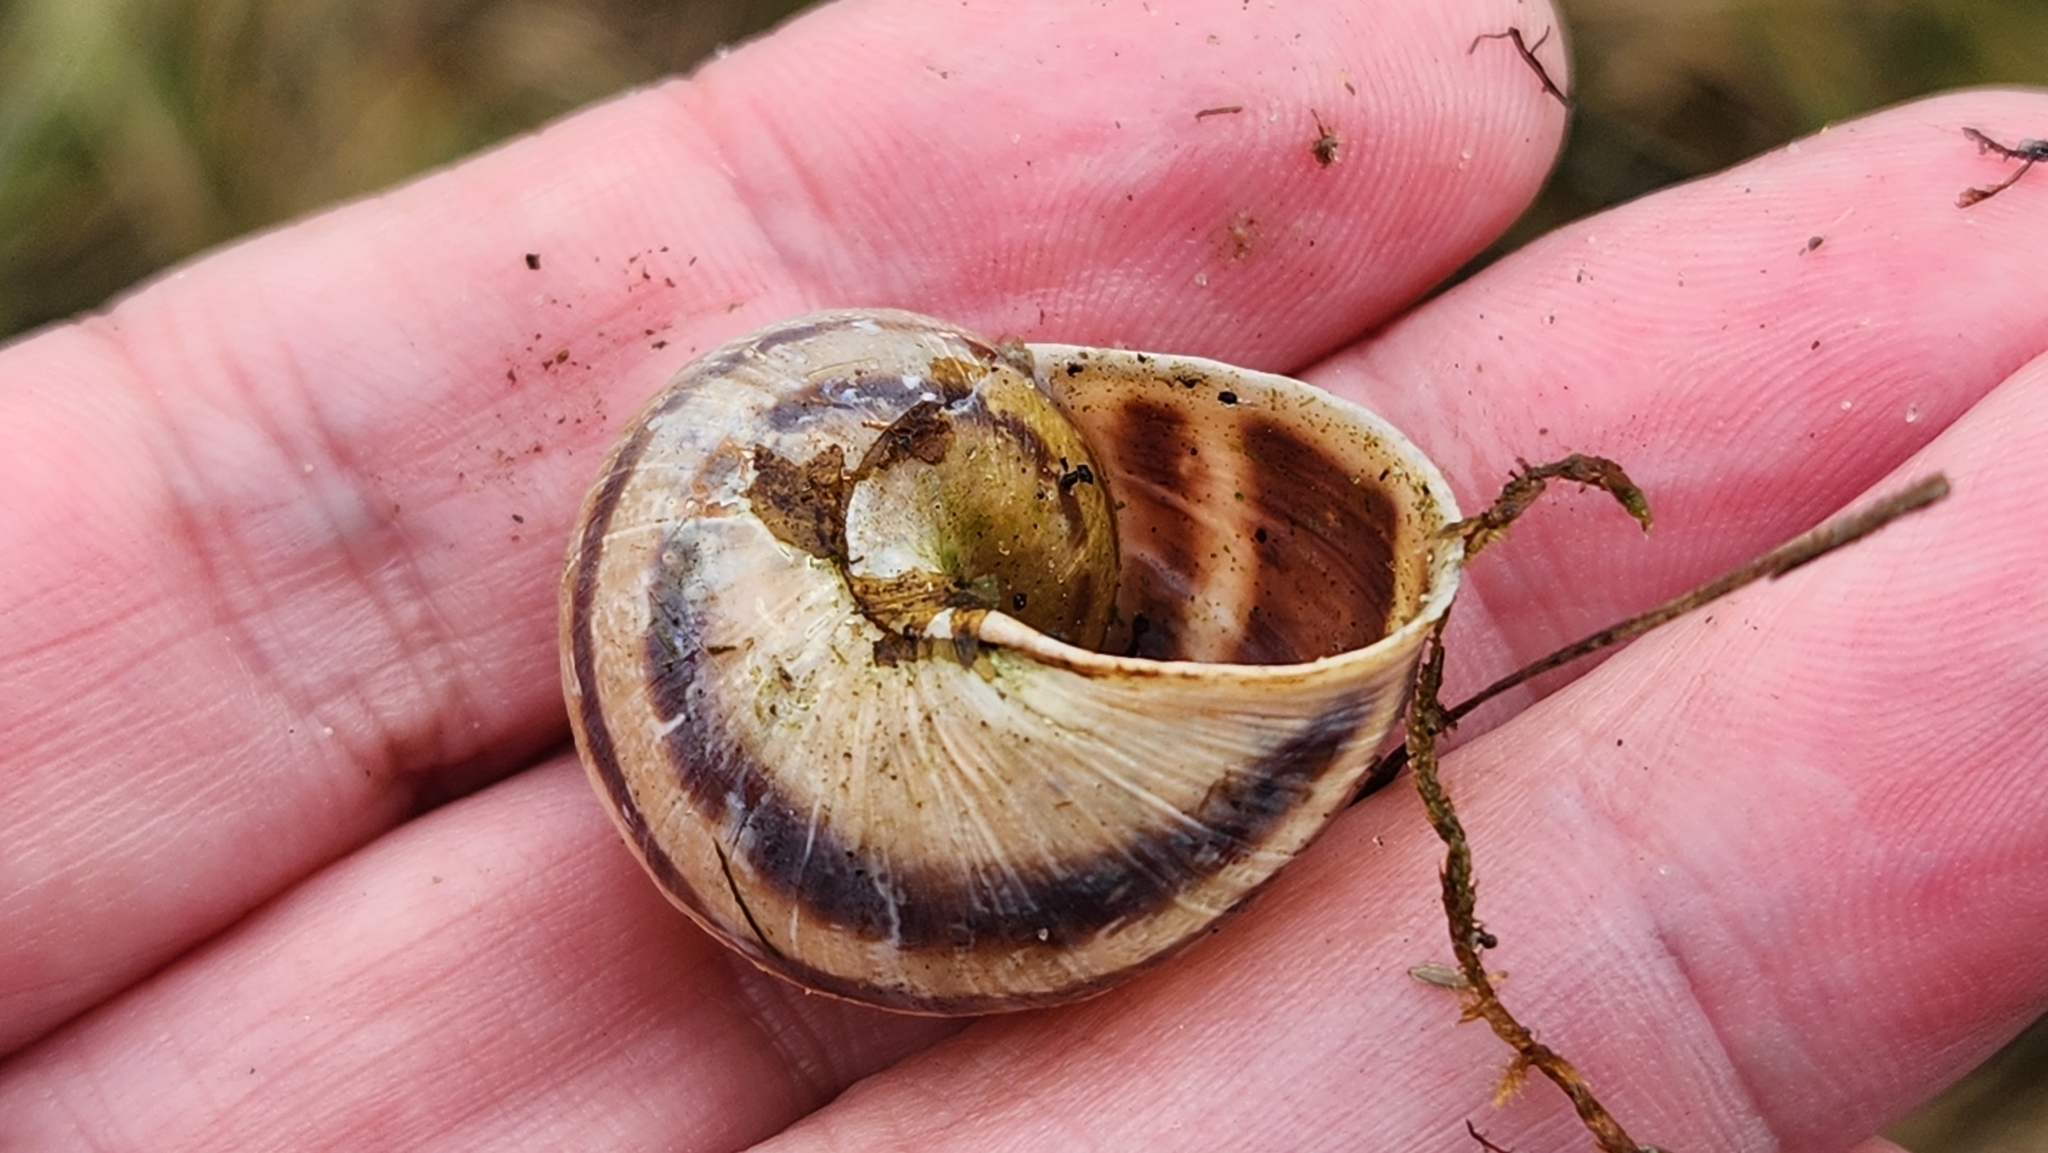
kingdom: Animalia
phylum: Mollusca
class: Gastropoda
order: Stylommatophora
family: Helicidae
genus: Cornu
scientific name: Cornu aspersum
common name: Brown garden snail
